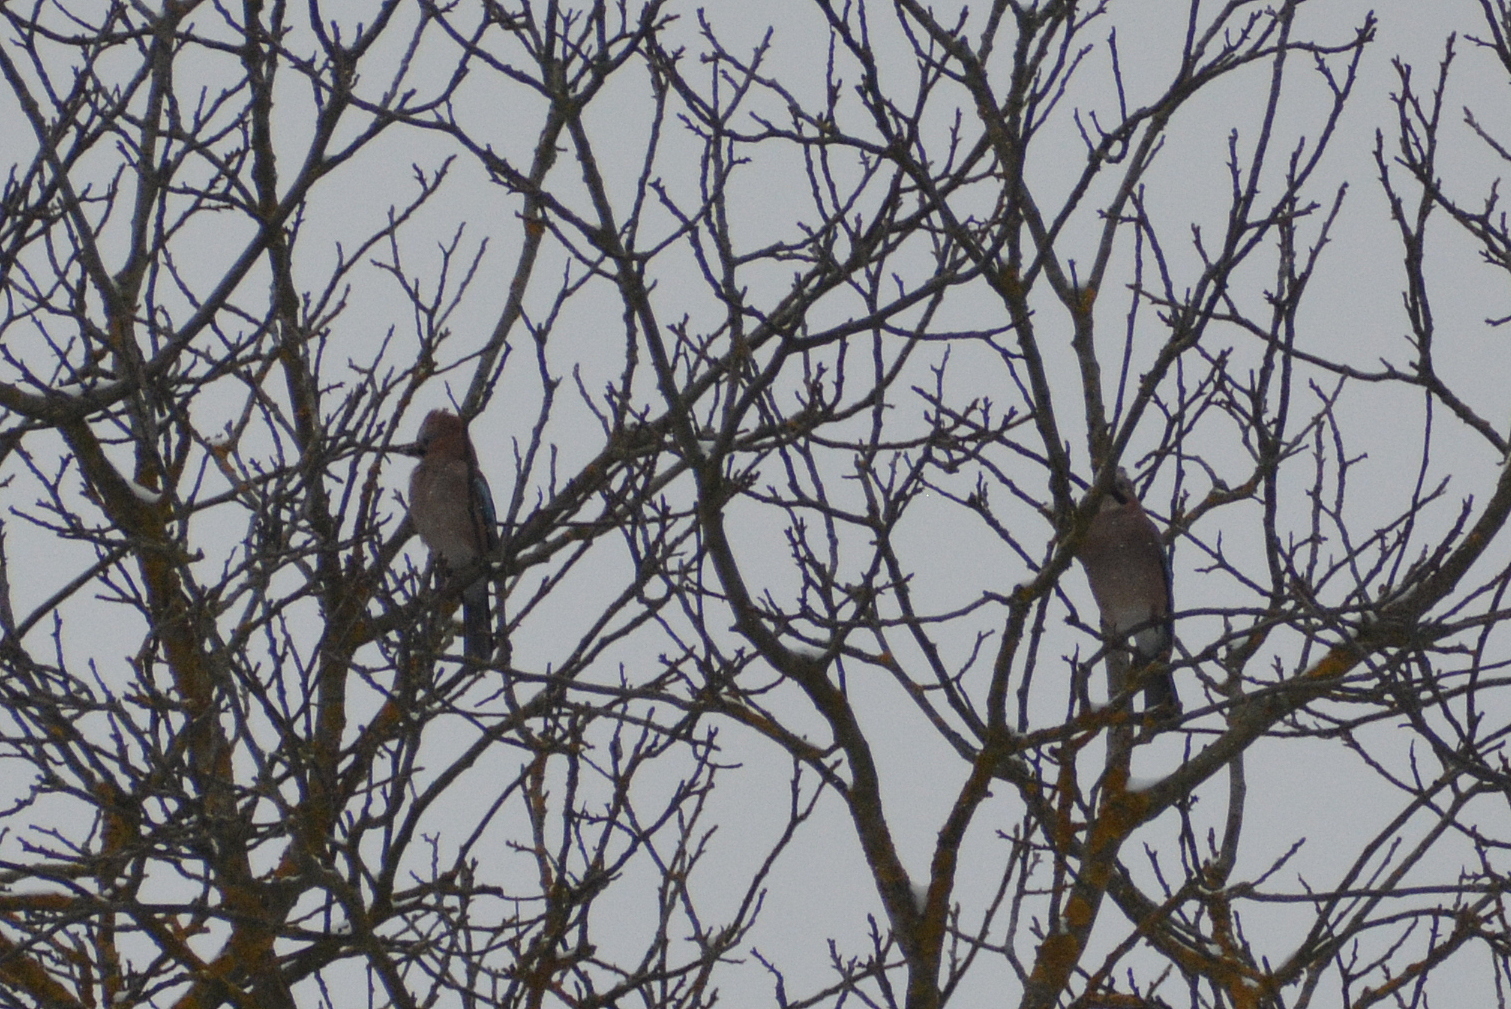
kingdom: Animalia
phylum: Chordata
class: Aves
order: Passeriformes
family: Corvidae
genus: Garrulus
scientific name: Garrulus glandarius
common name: Eurasian jay
